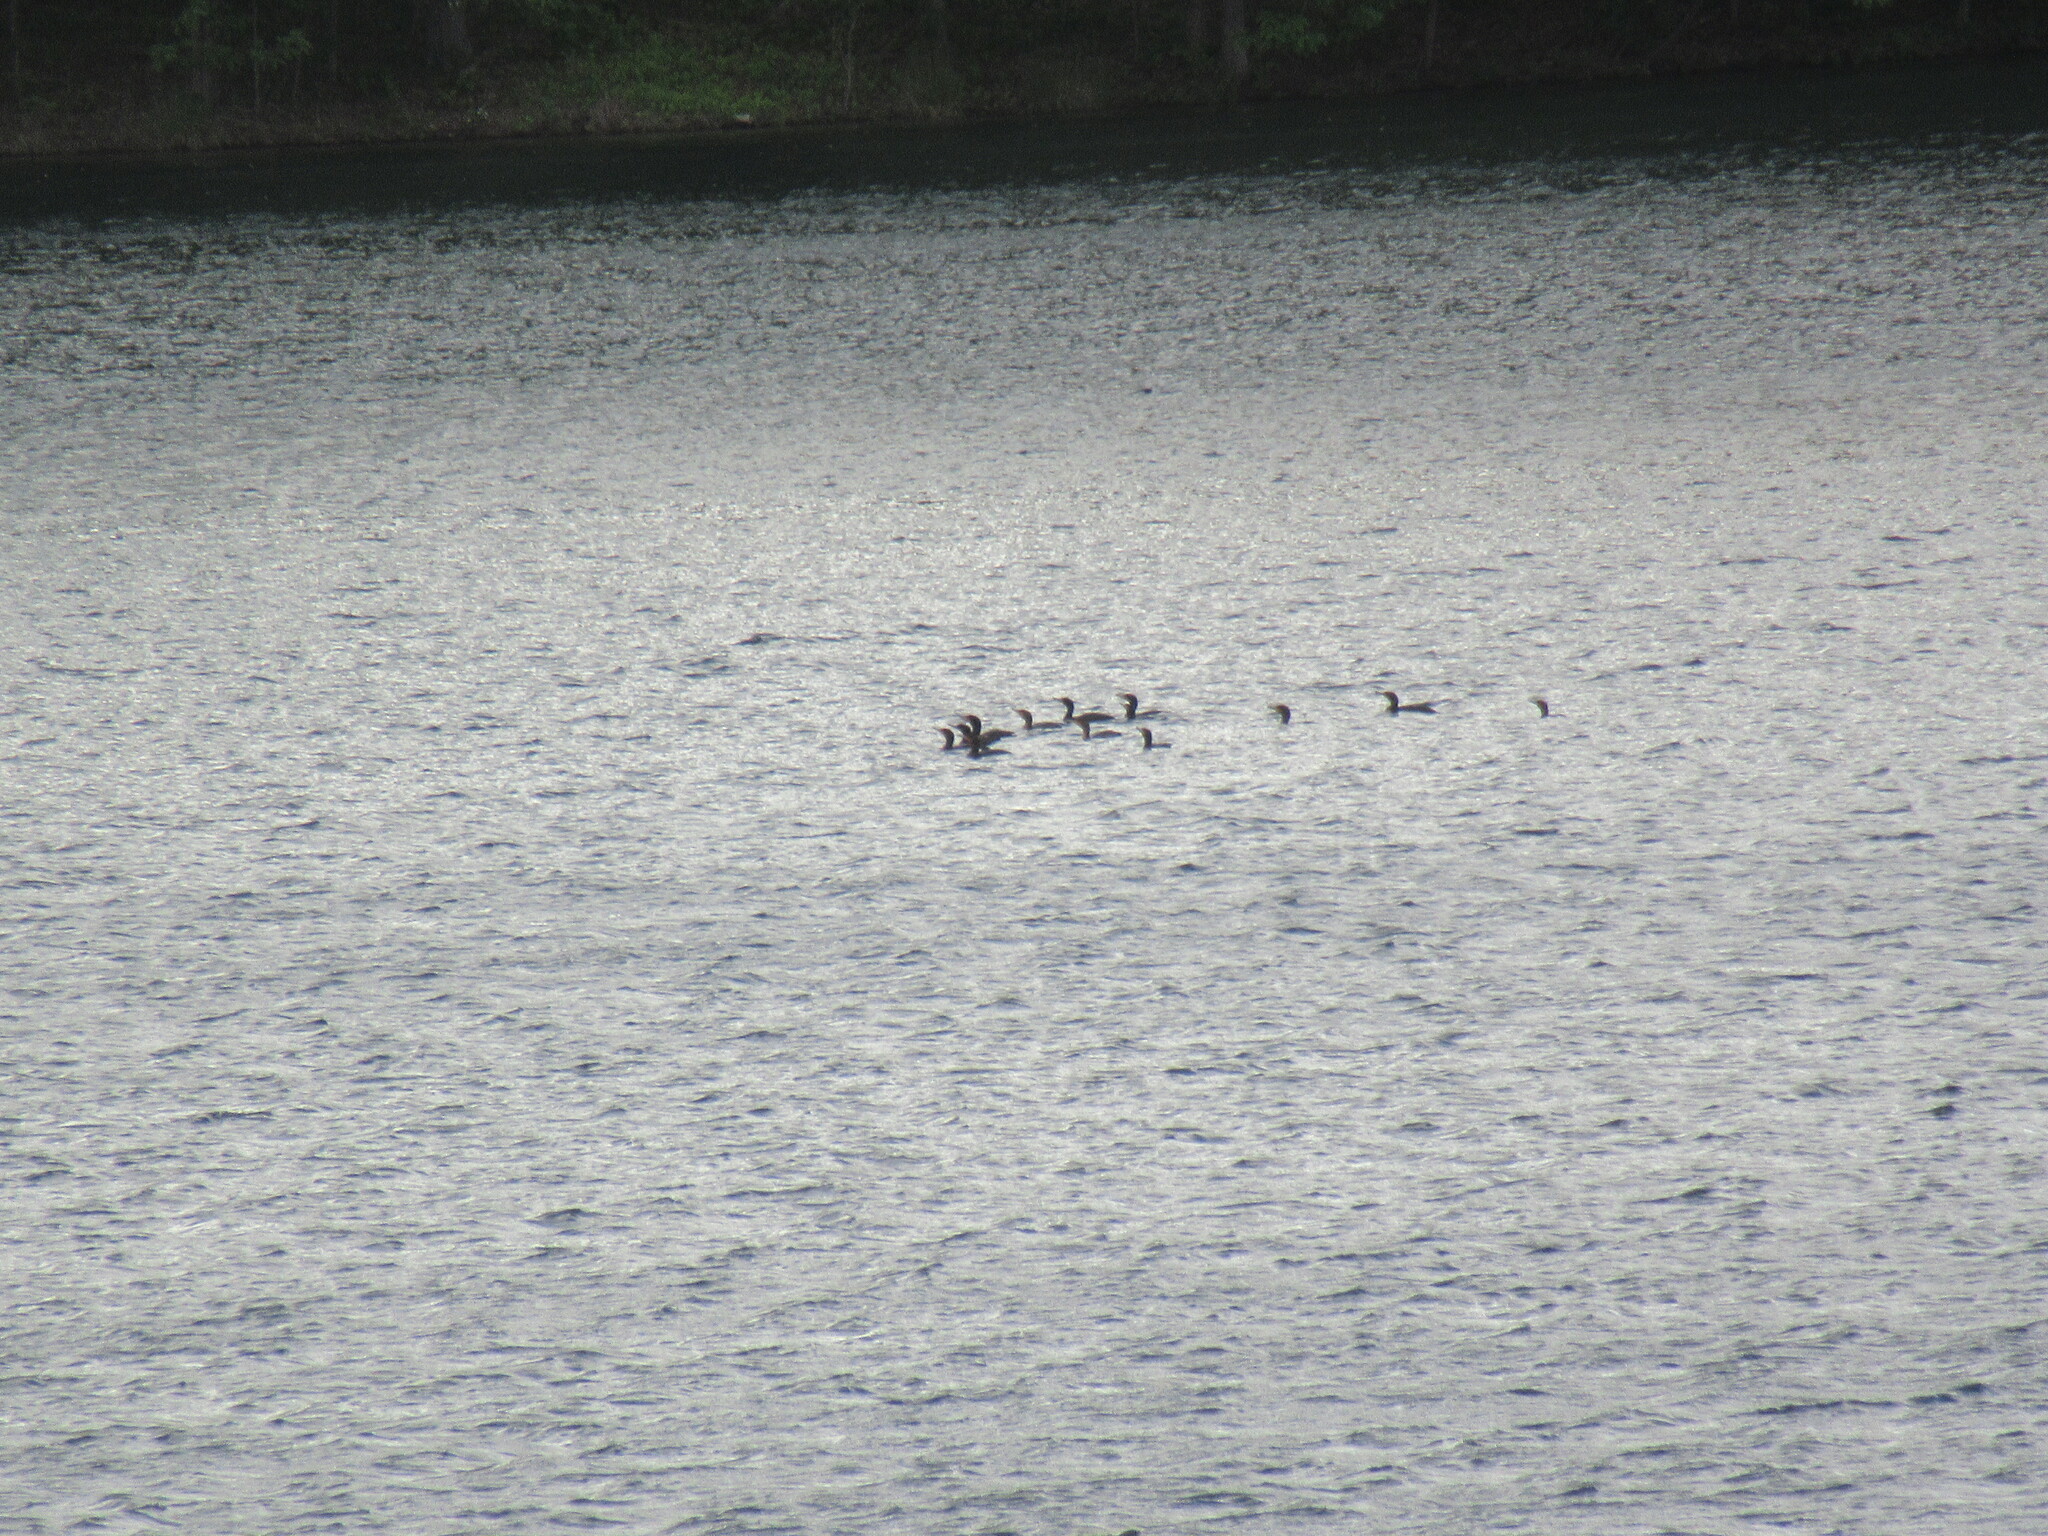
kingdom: Animalia
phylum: Chordata
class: Aves
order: Suliformes
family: Phalacrocoracidae
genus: Phalacrocorax
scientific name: Phalacrocorax auritus
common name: Double-crested cormorant
